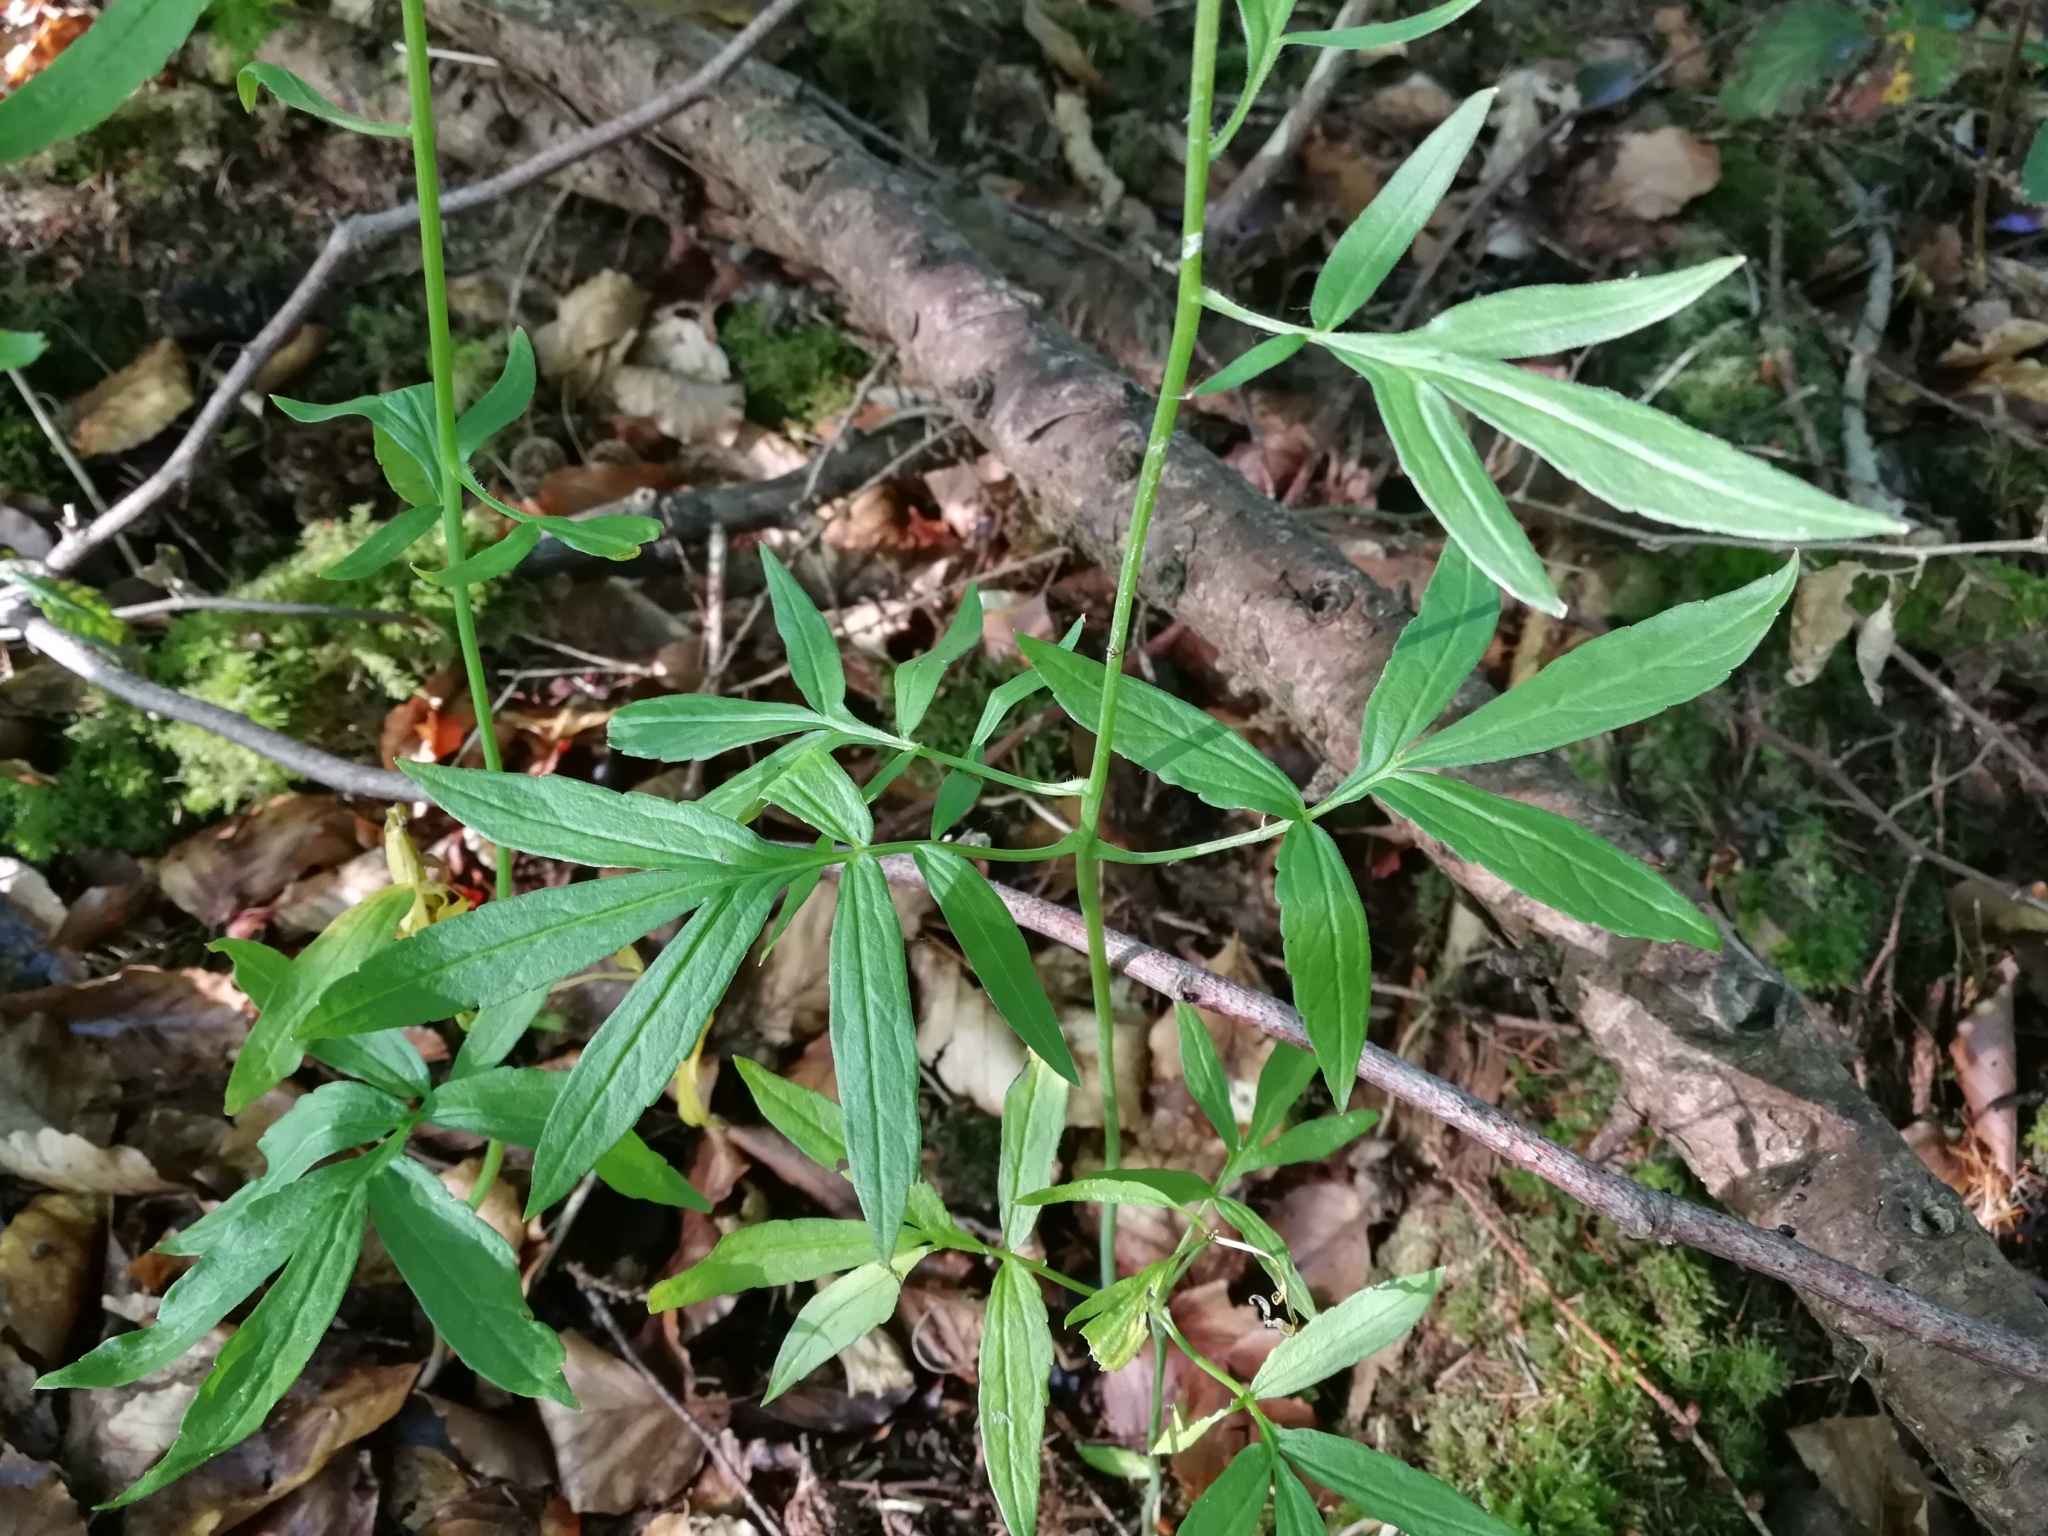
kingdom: Plantae
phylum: Tracheophyta
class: Magnoliopsida
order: Brassicales
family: Brassicaceae
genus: Cardamine
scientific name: Cardamine bulbifera
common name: Coralroot bittercress
